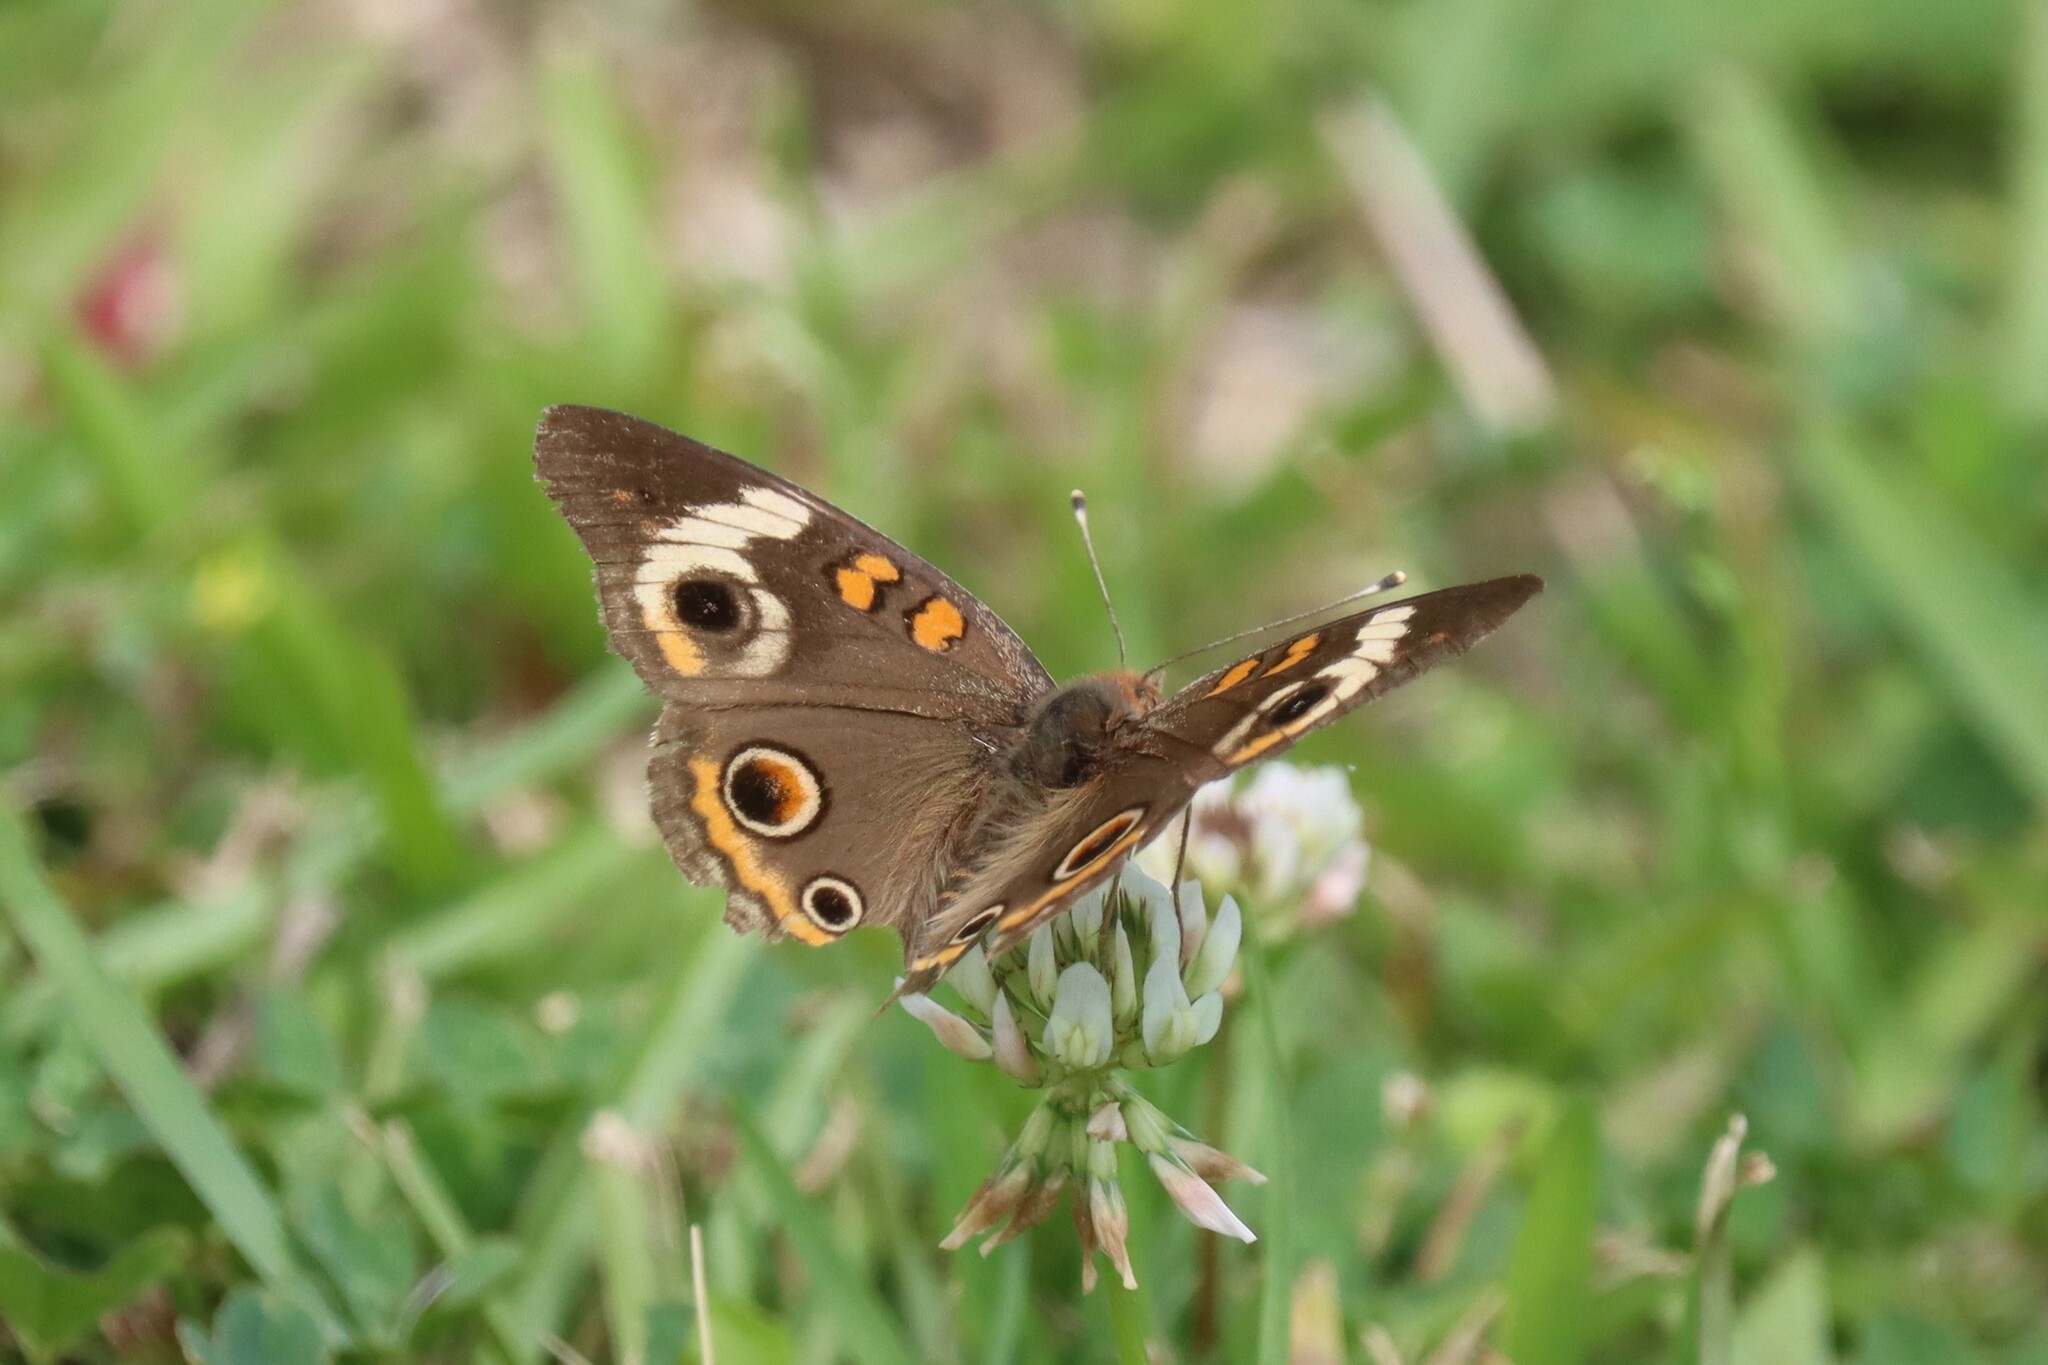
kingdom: Animalia
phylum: Arthropoda
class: Insecta
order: Lepidoptera
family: Nymphalidae
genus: Junonia
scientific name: Junonia coenia
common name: Common buckeye
